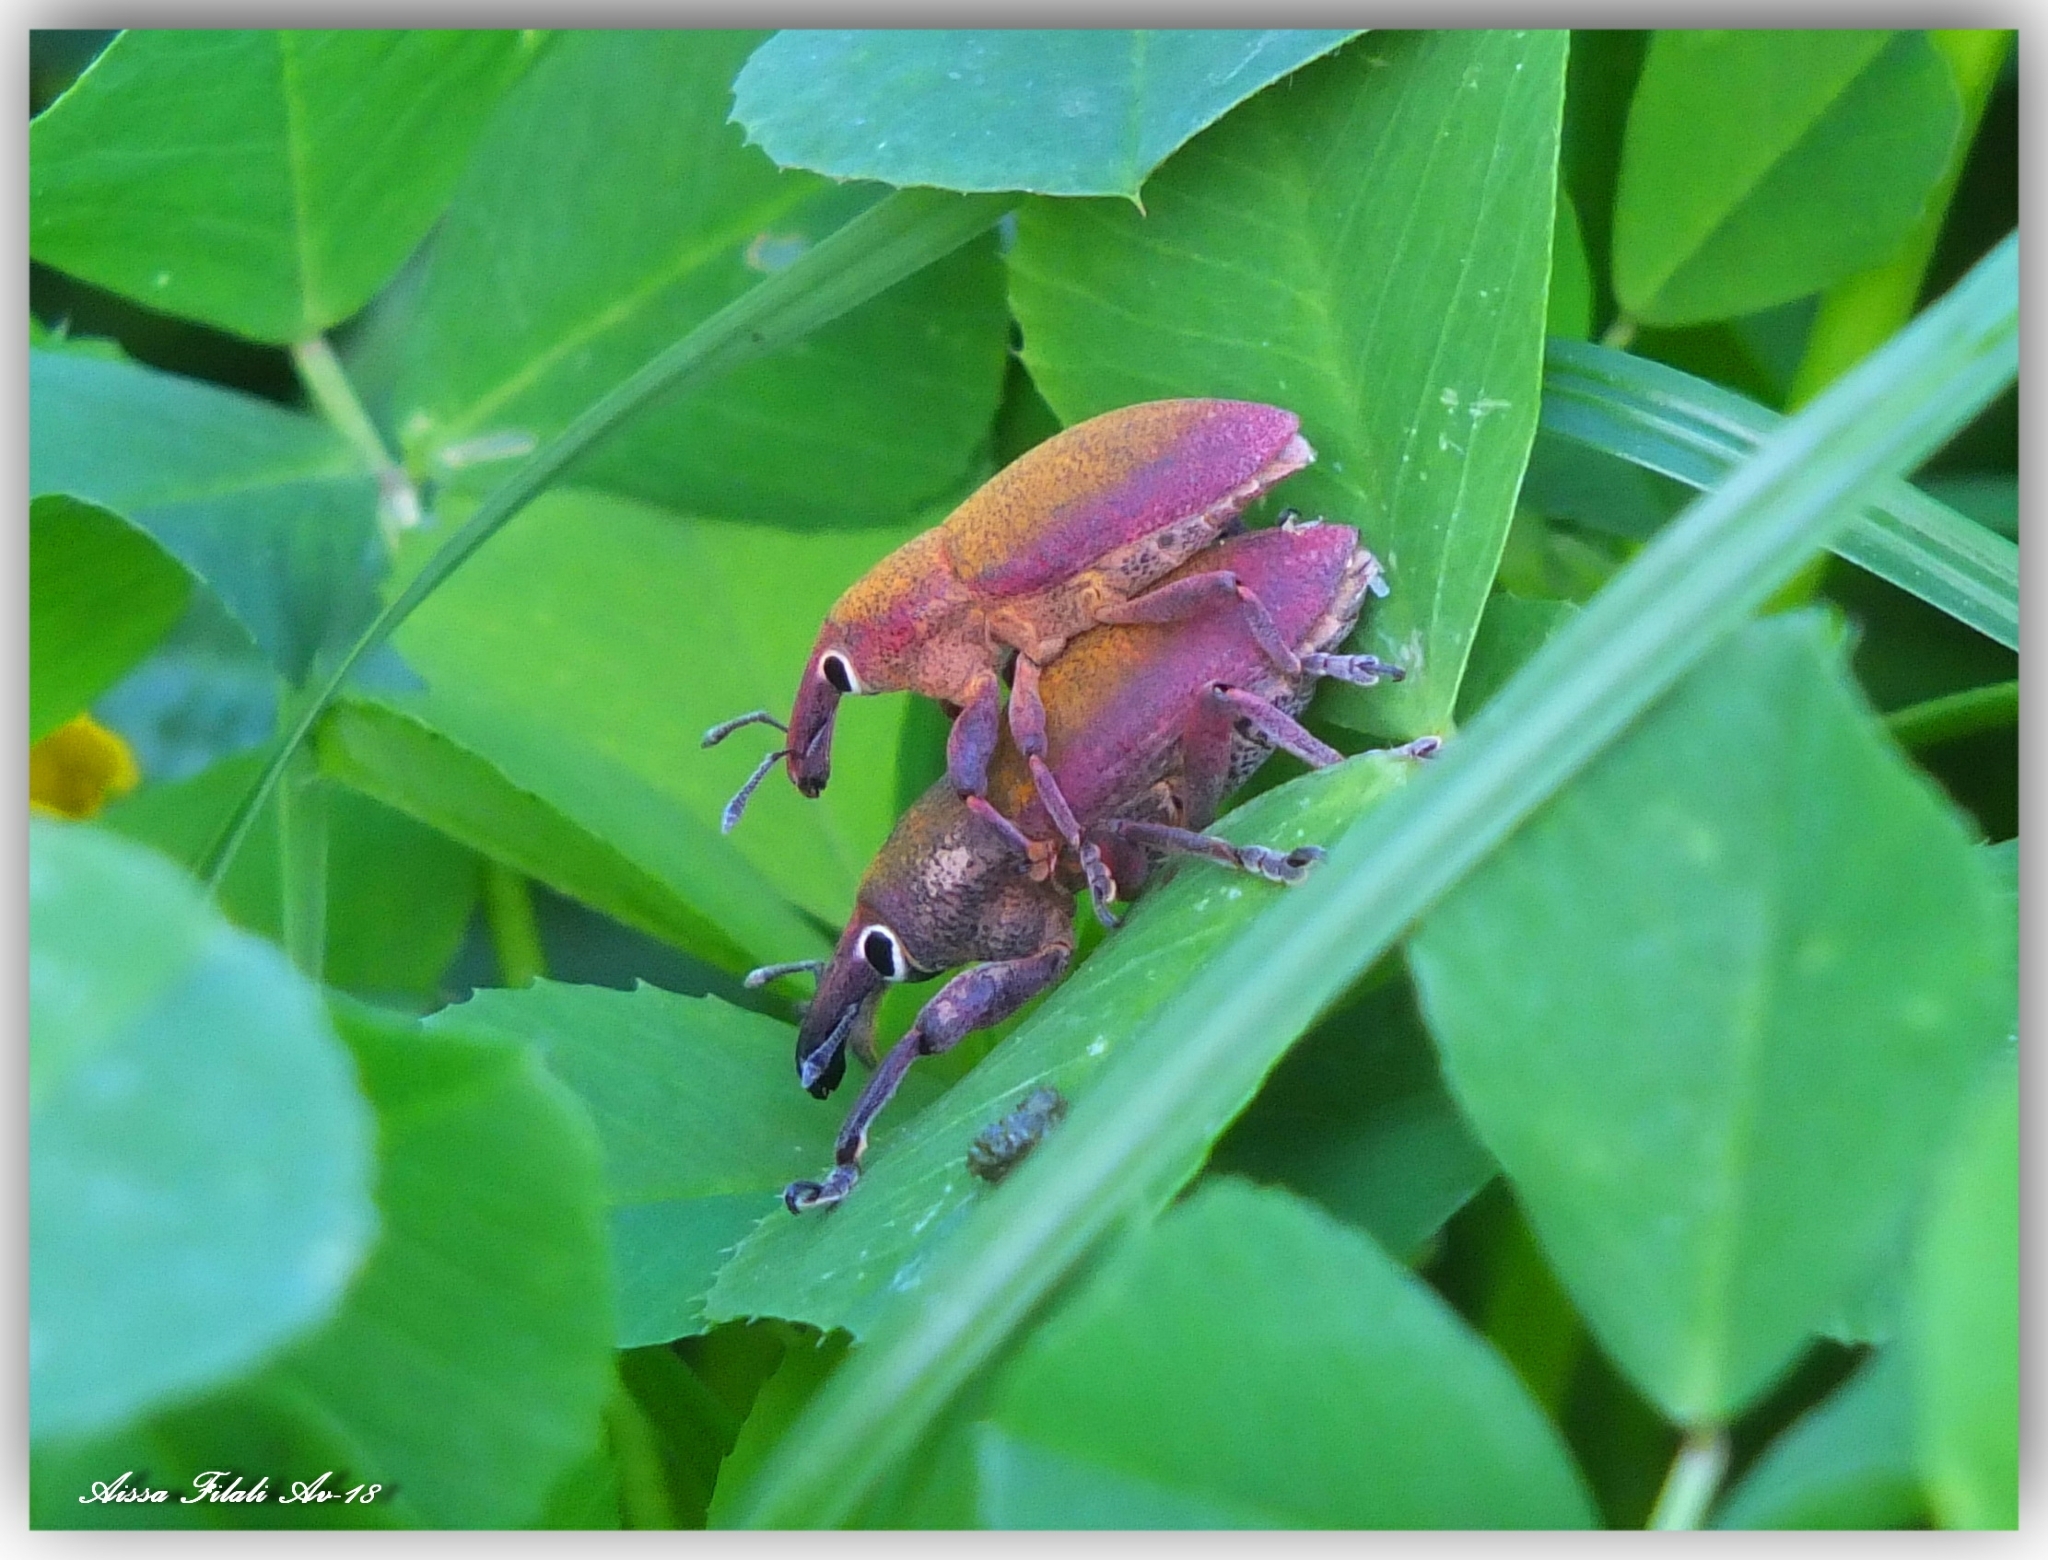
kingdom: Animalia
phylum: Arthropoda
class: Insecta
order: Coleoptera
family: Curculionidae
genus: Lixomorphus
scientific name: Lixomorphus algirus
